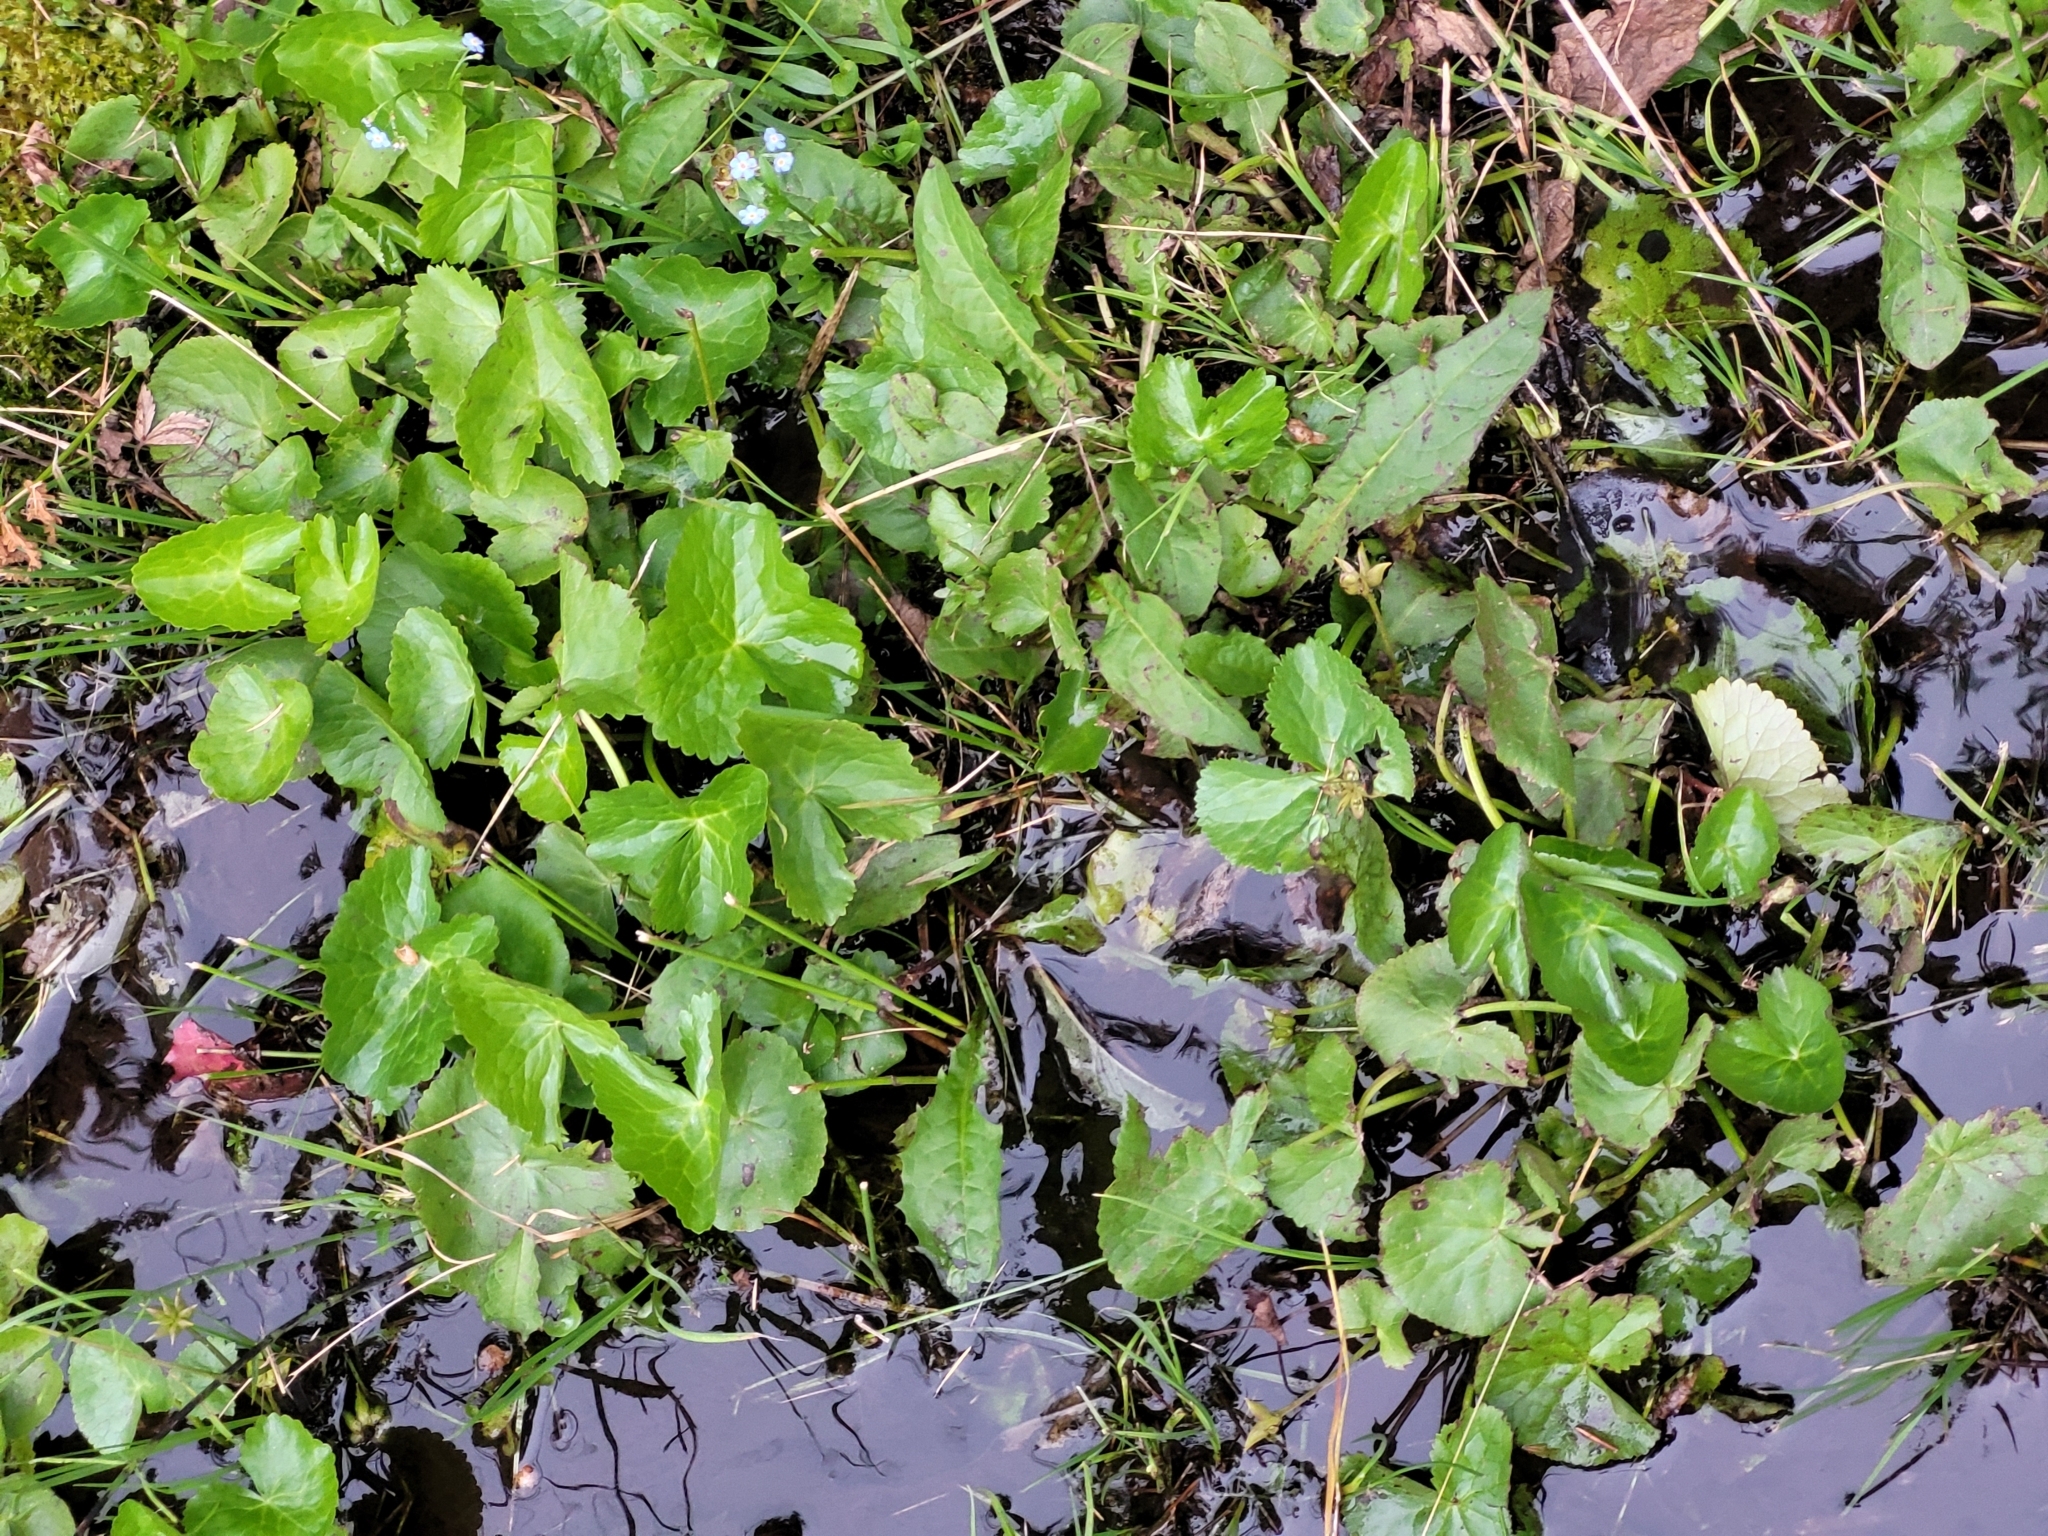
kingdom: Plantae
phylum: Tracheophyta
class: Magnoliopsida
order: Ranunculales
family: Ranunculaceae
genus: Caltha
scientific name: Caltha palustris
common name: Marsh marigold
